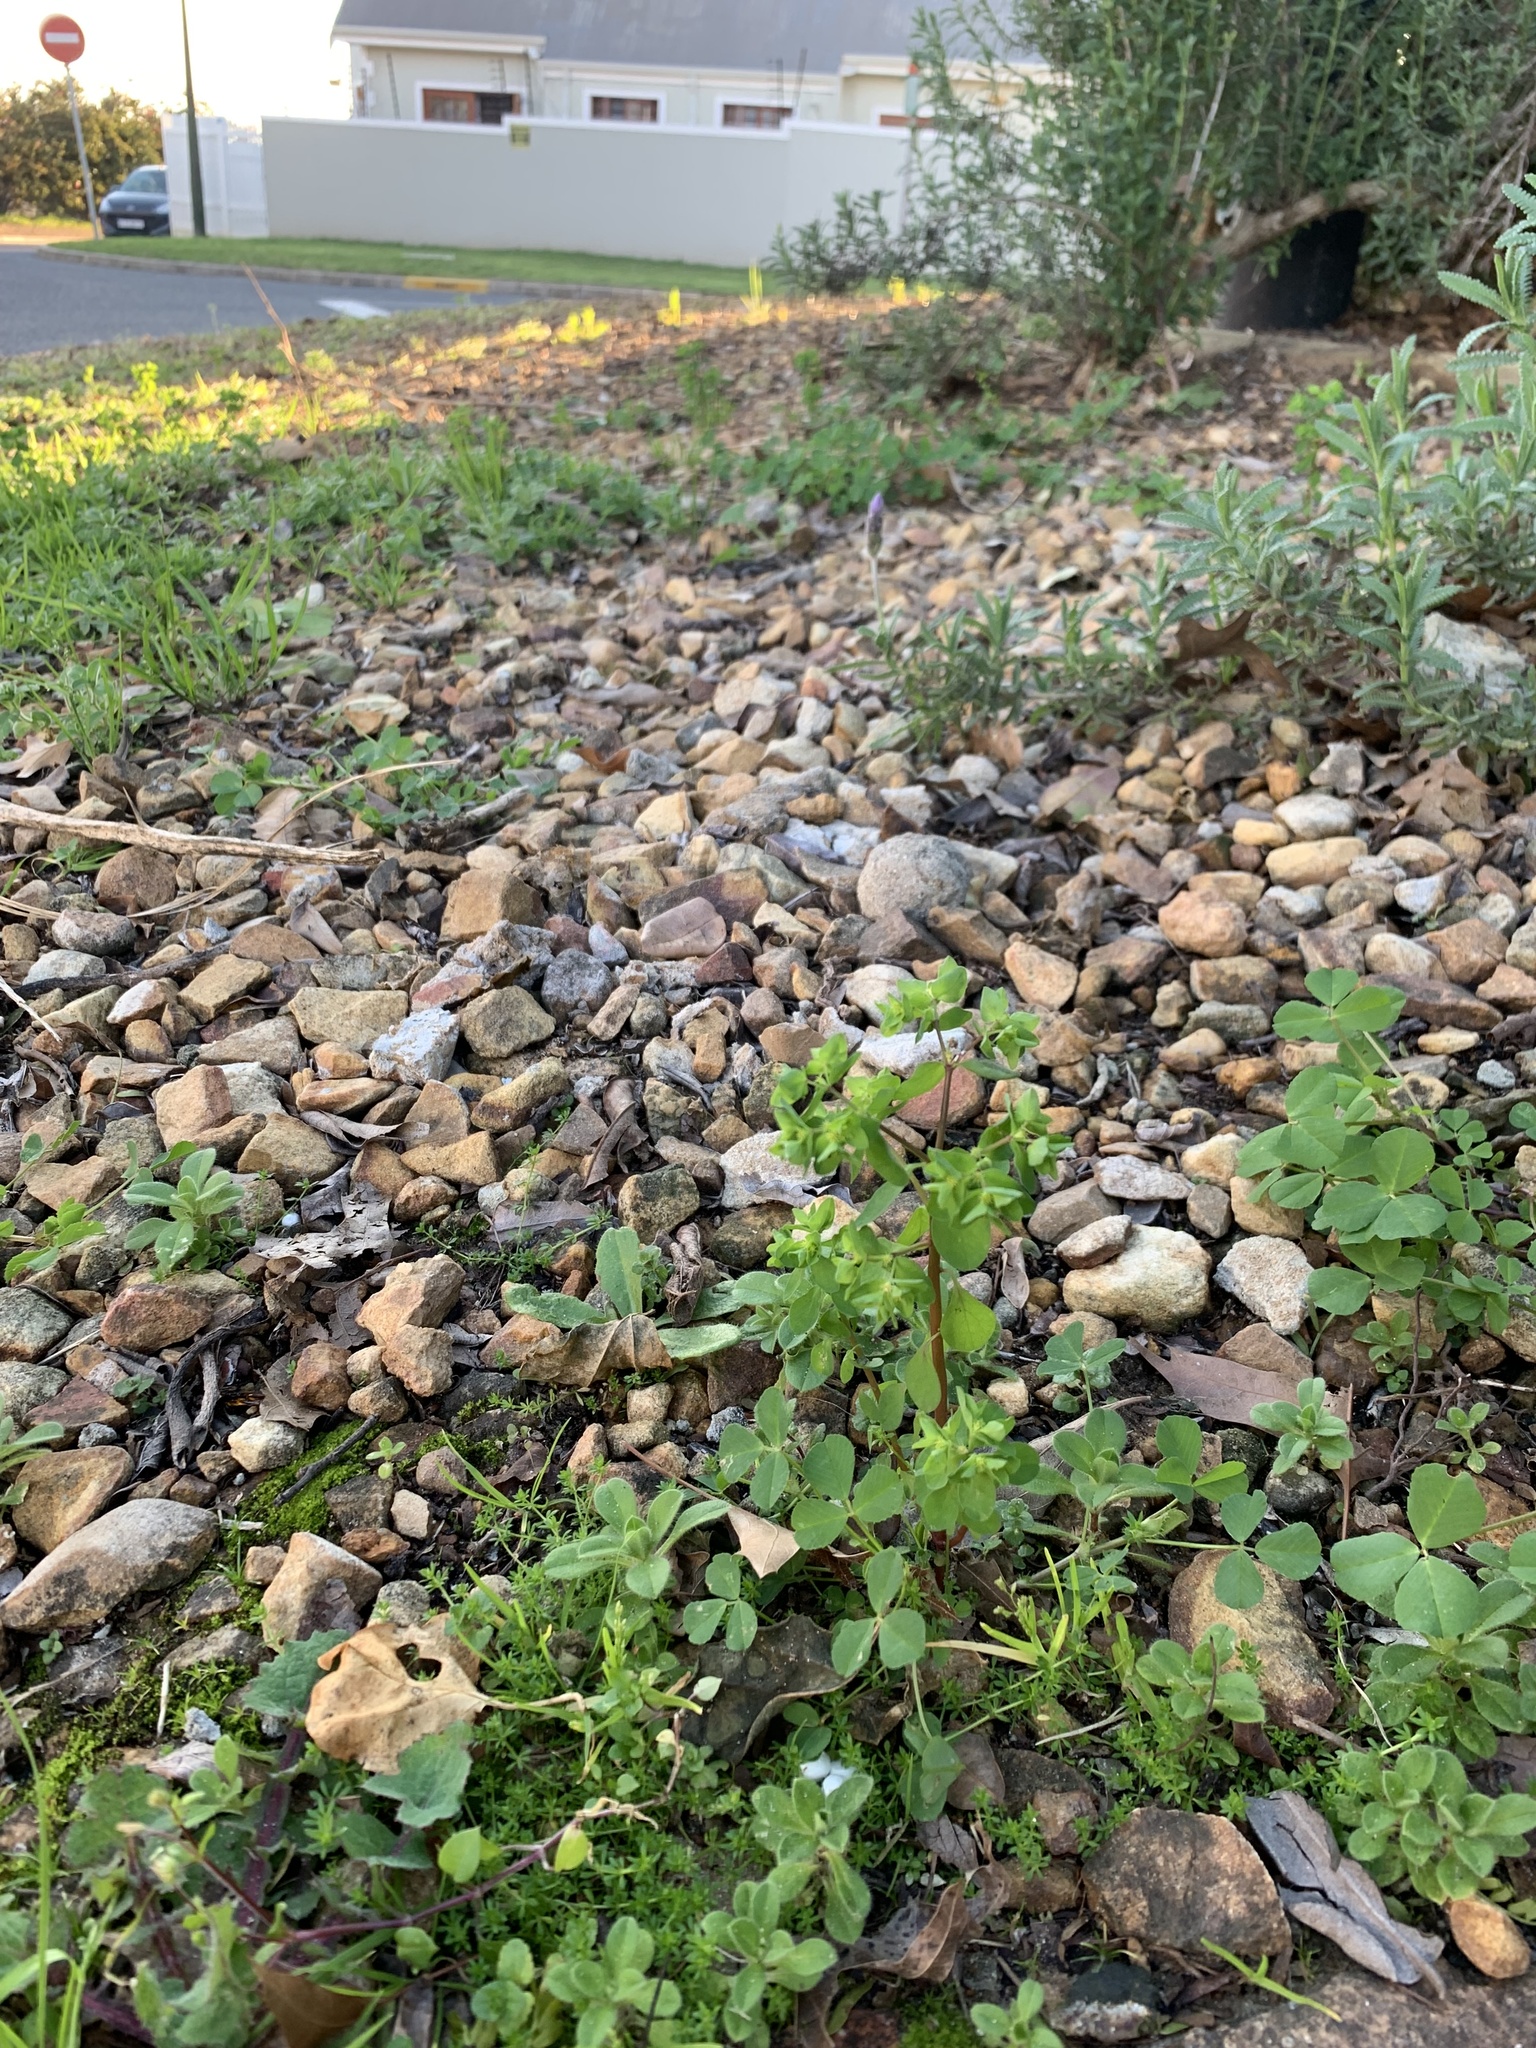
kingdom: Plantae
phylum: Tracheophyta
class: Magnoliopsida
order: Malpighiales
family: Euphorbiaceae
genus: Euphorbia
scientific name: Euphorbia peplus
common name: Petty spurge
